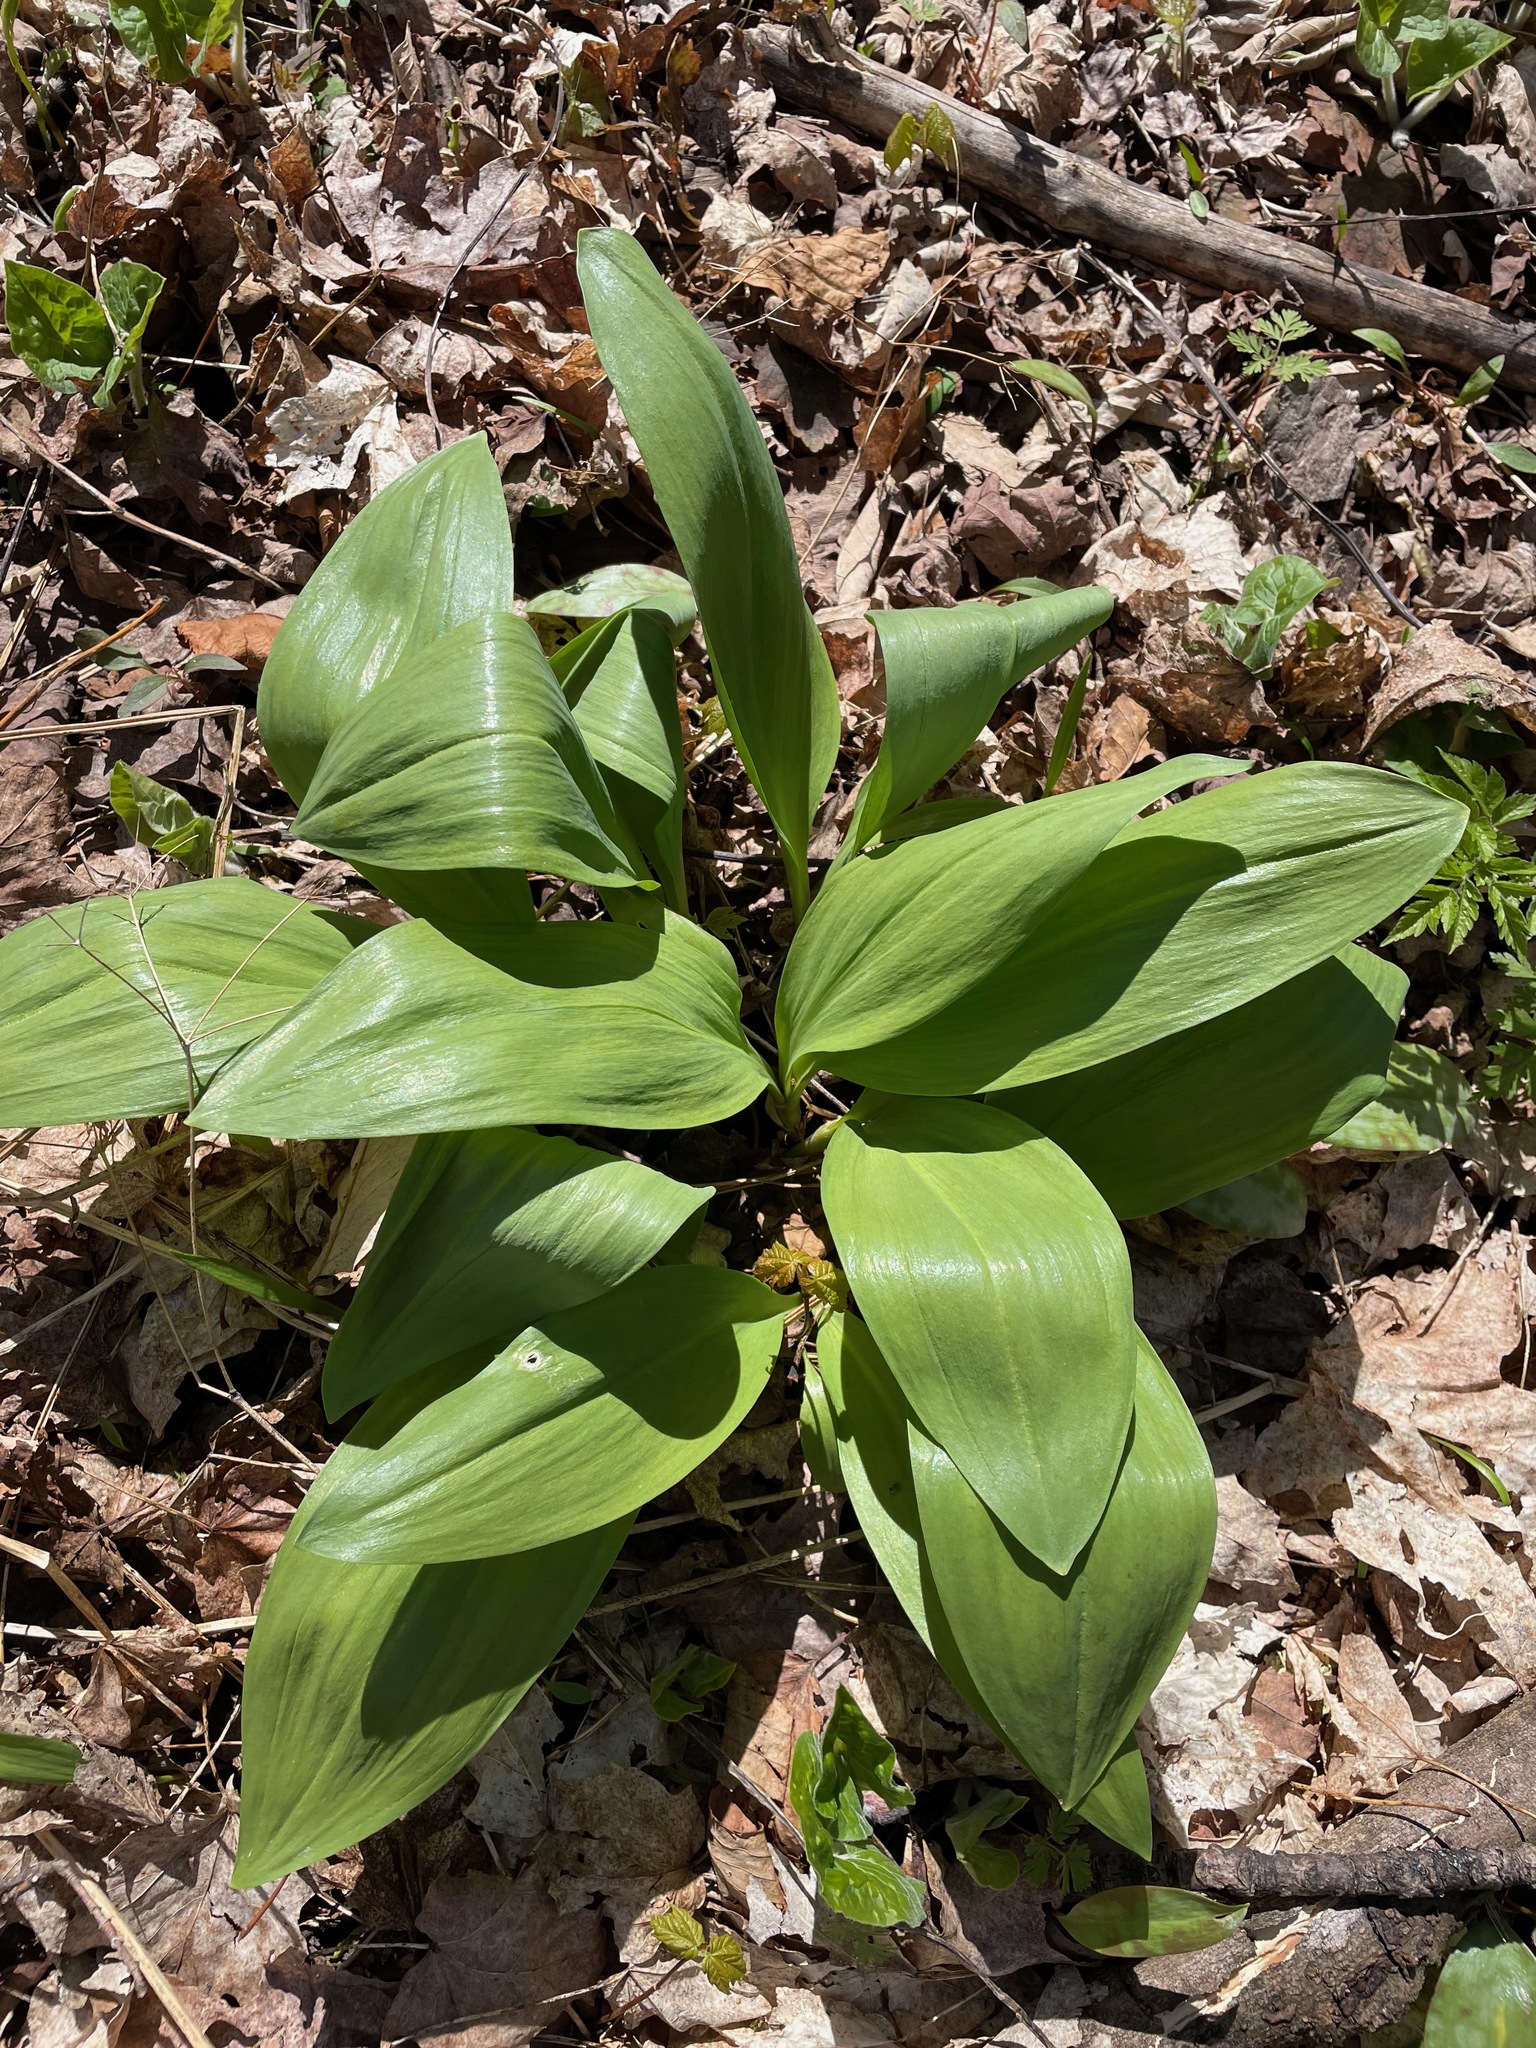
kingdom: Plantae
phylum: Tracheophyta
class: Liliopsida
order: Asparagales
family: Amaryllidaceae
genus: Allium
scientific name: Allium tricoccum
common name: Ramp
